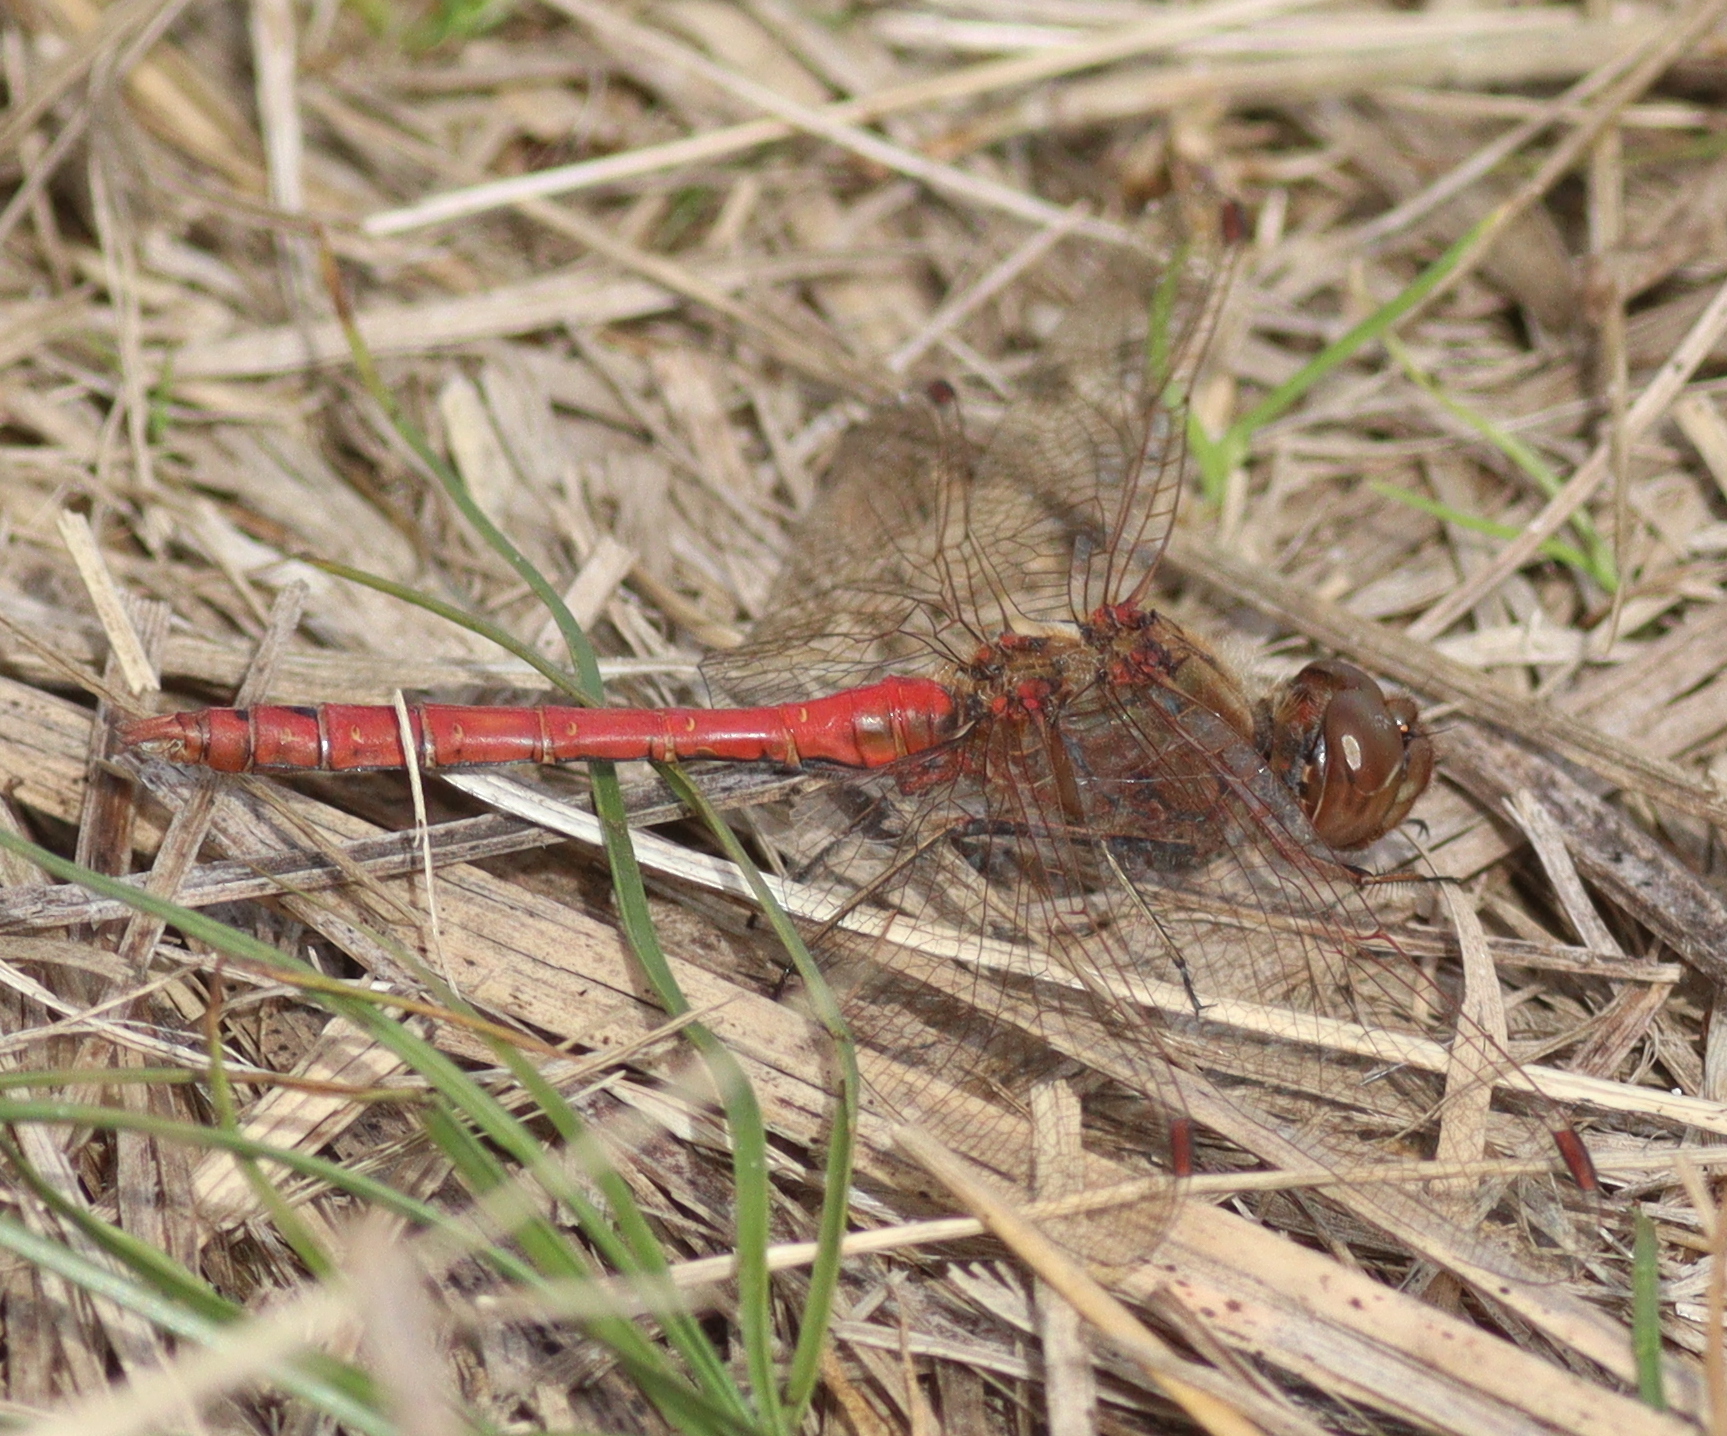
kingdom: Animalia
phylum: Arthropoda
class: Insecta
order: Odonata
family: Libellulidae
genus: Sympetrum
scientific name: Sympetrum vulgatum
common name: Vagrant darter
